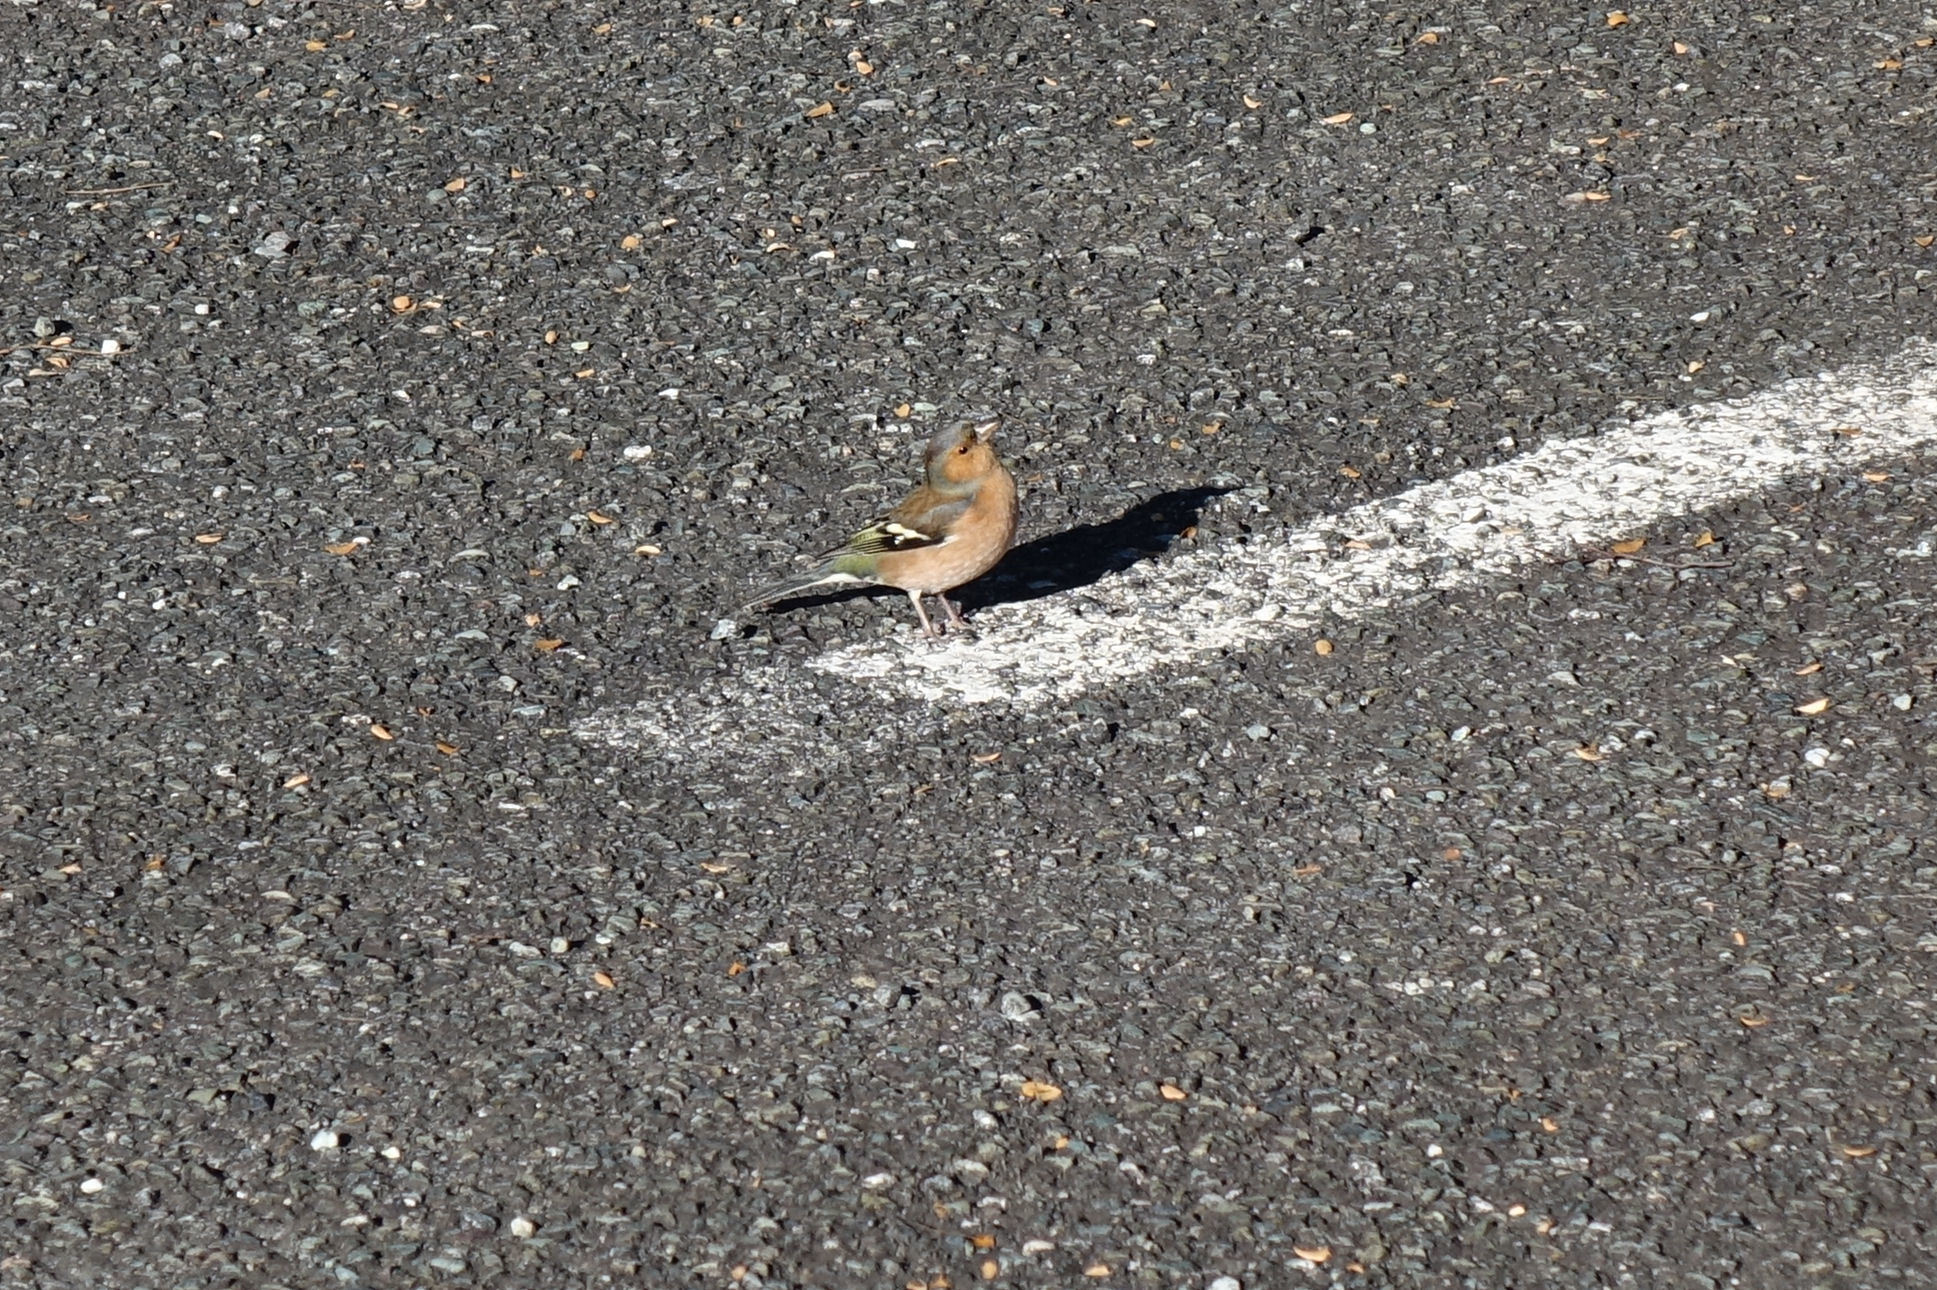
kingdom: Animalia
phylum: Chordata
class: Aves
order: Passeriformes
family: Fringillidae
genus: Fringilla
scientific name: Fringilla coelebs
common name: Common chaffinch
